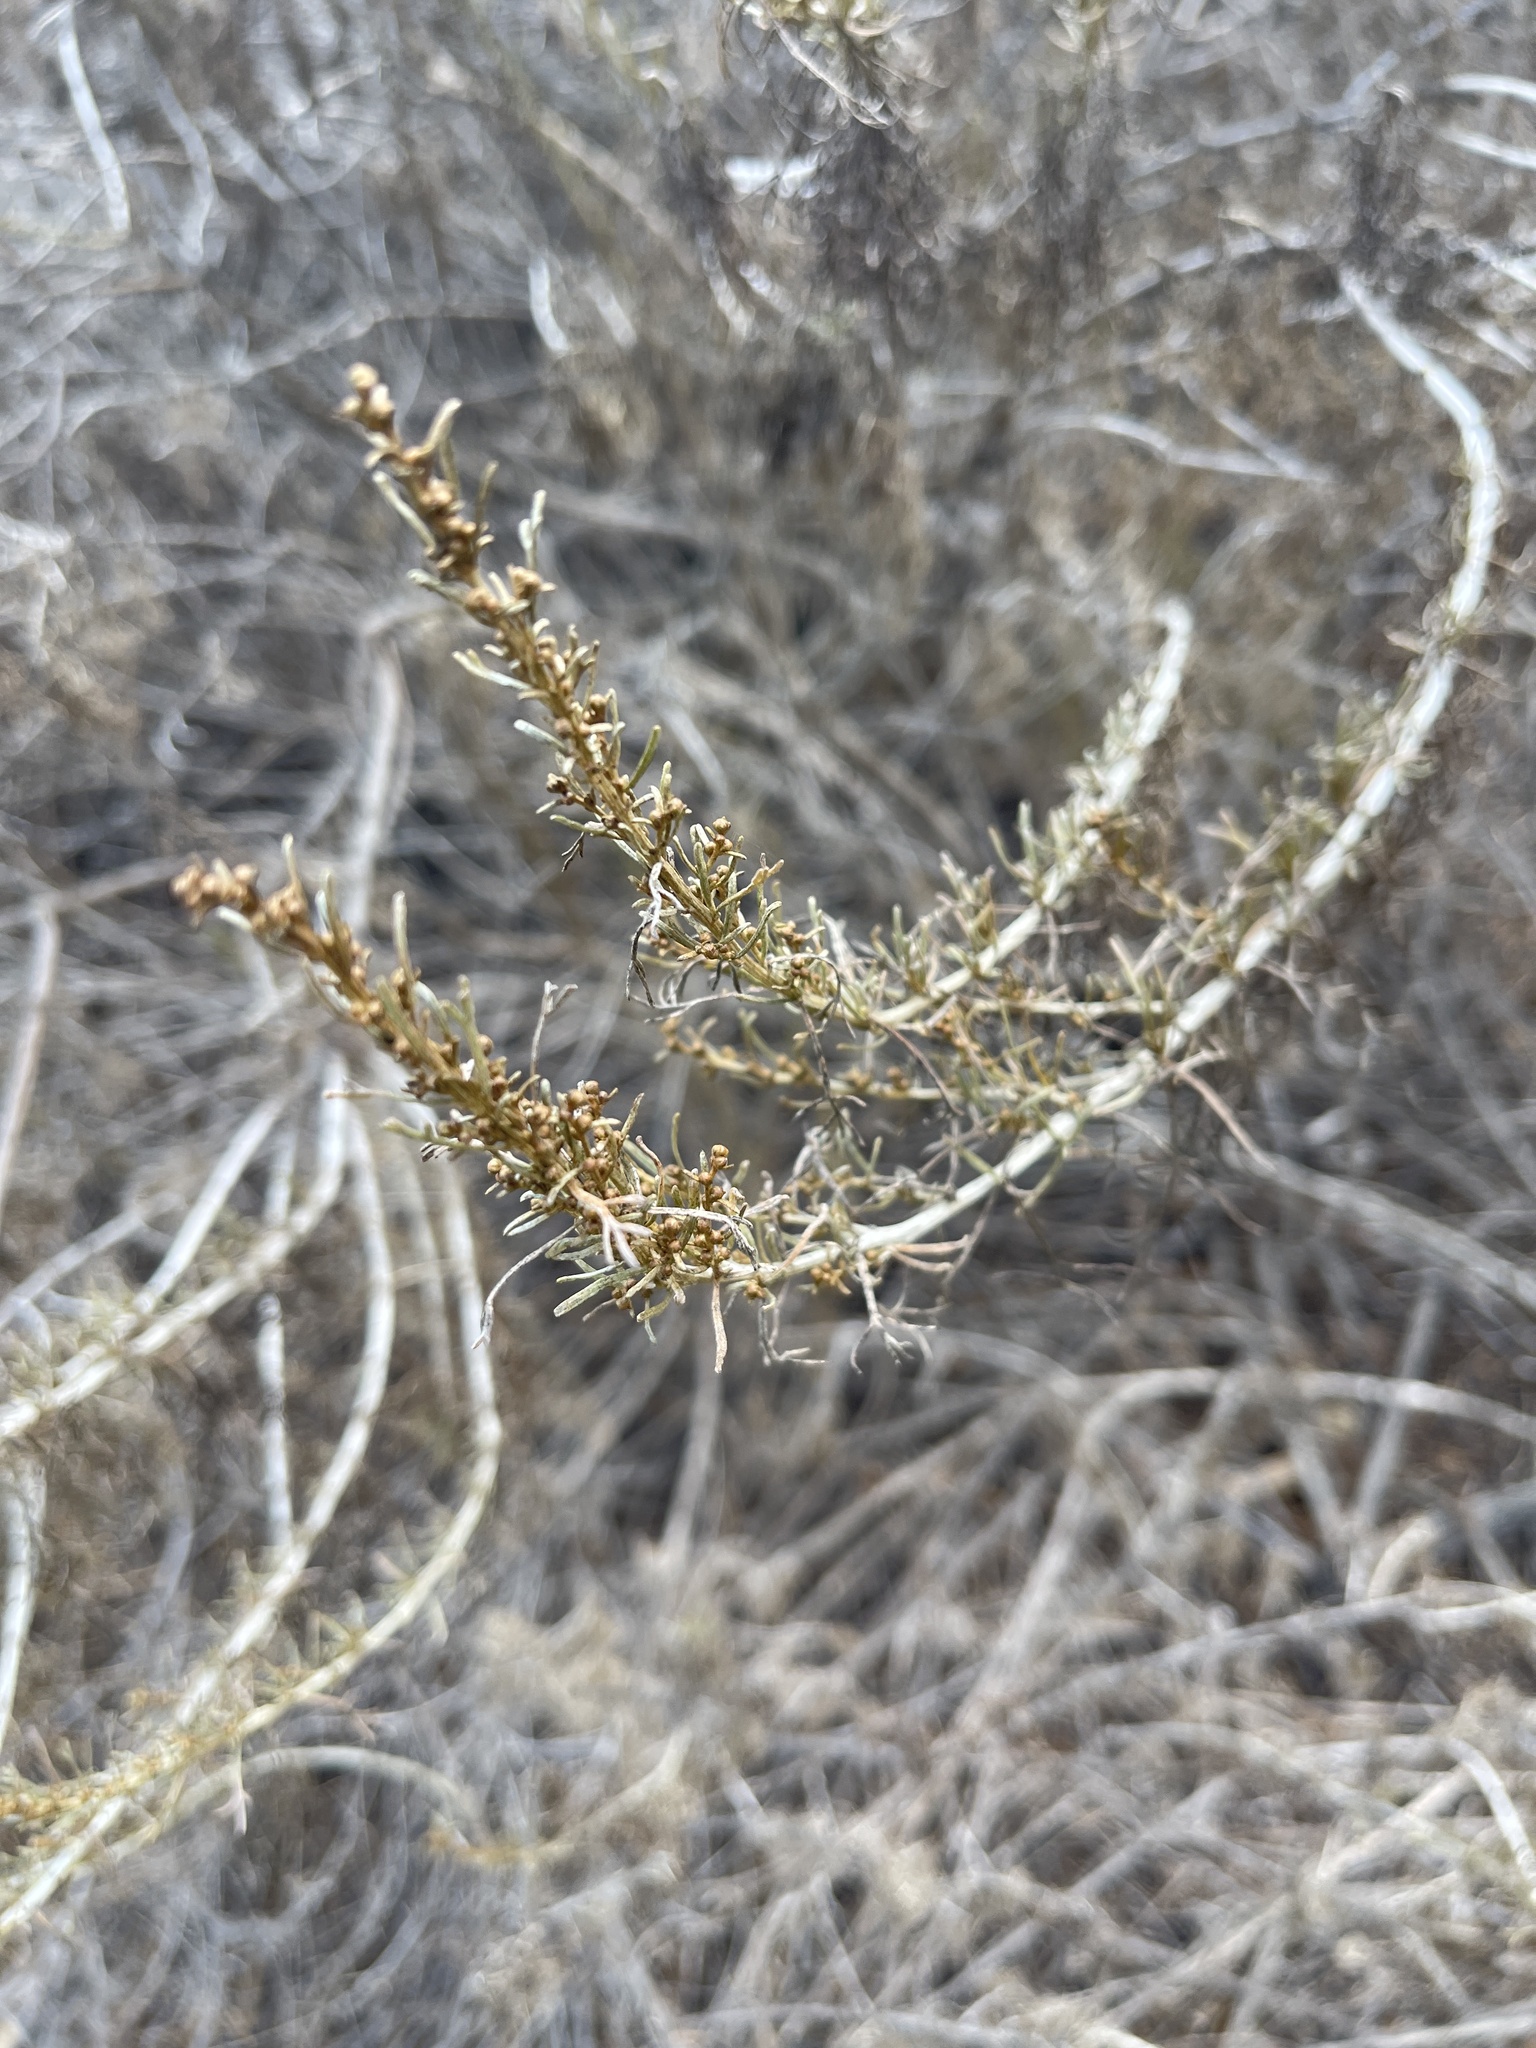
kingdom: Plantae
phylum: Tracheophyta
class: Magnoliopsida
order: Asterales
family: Asteraceae
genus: Artemisia
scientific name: Artemisia californica
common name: California sagebrush
